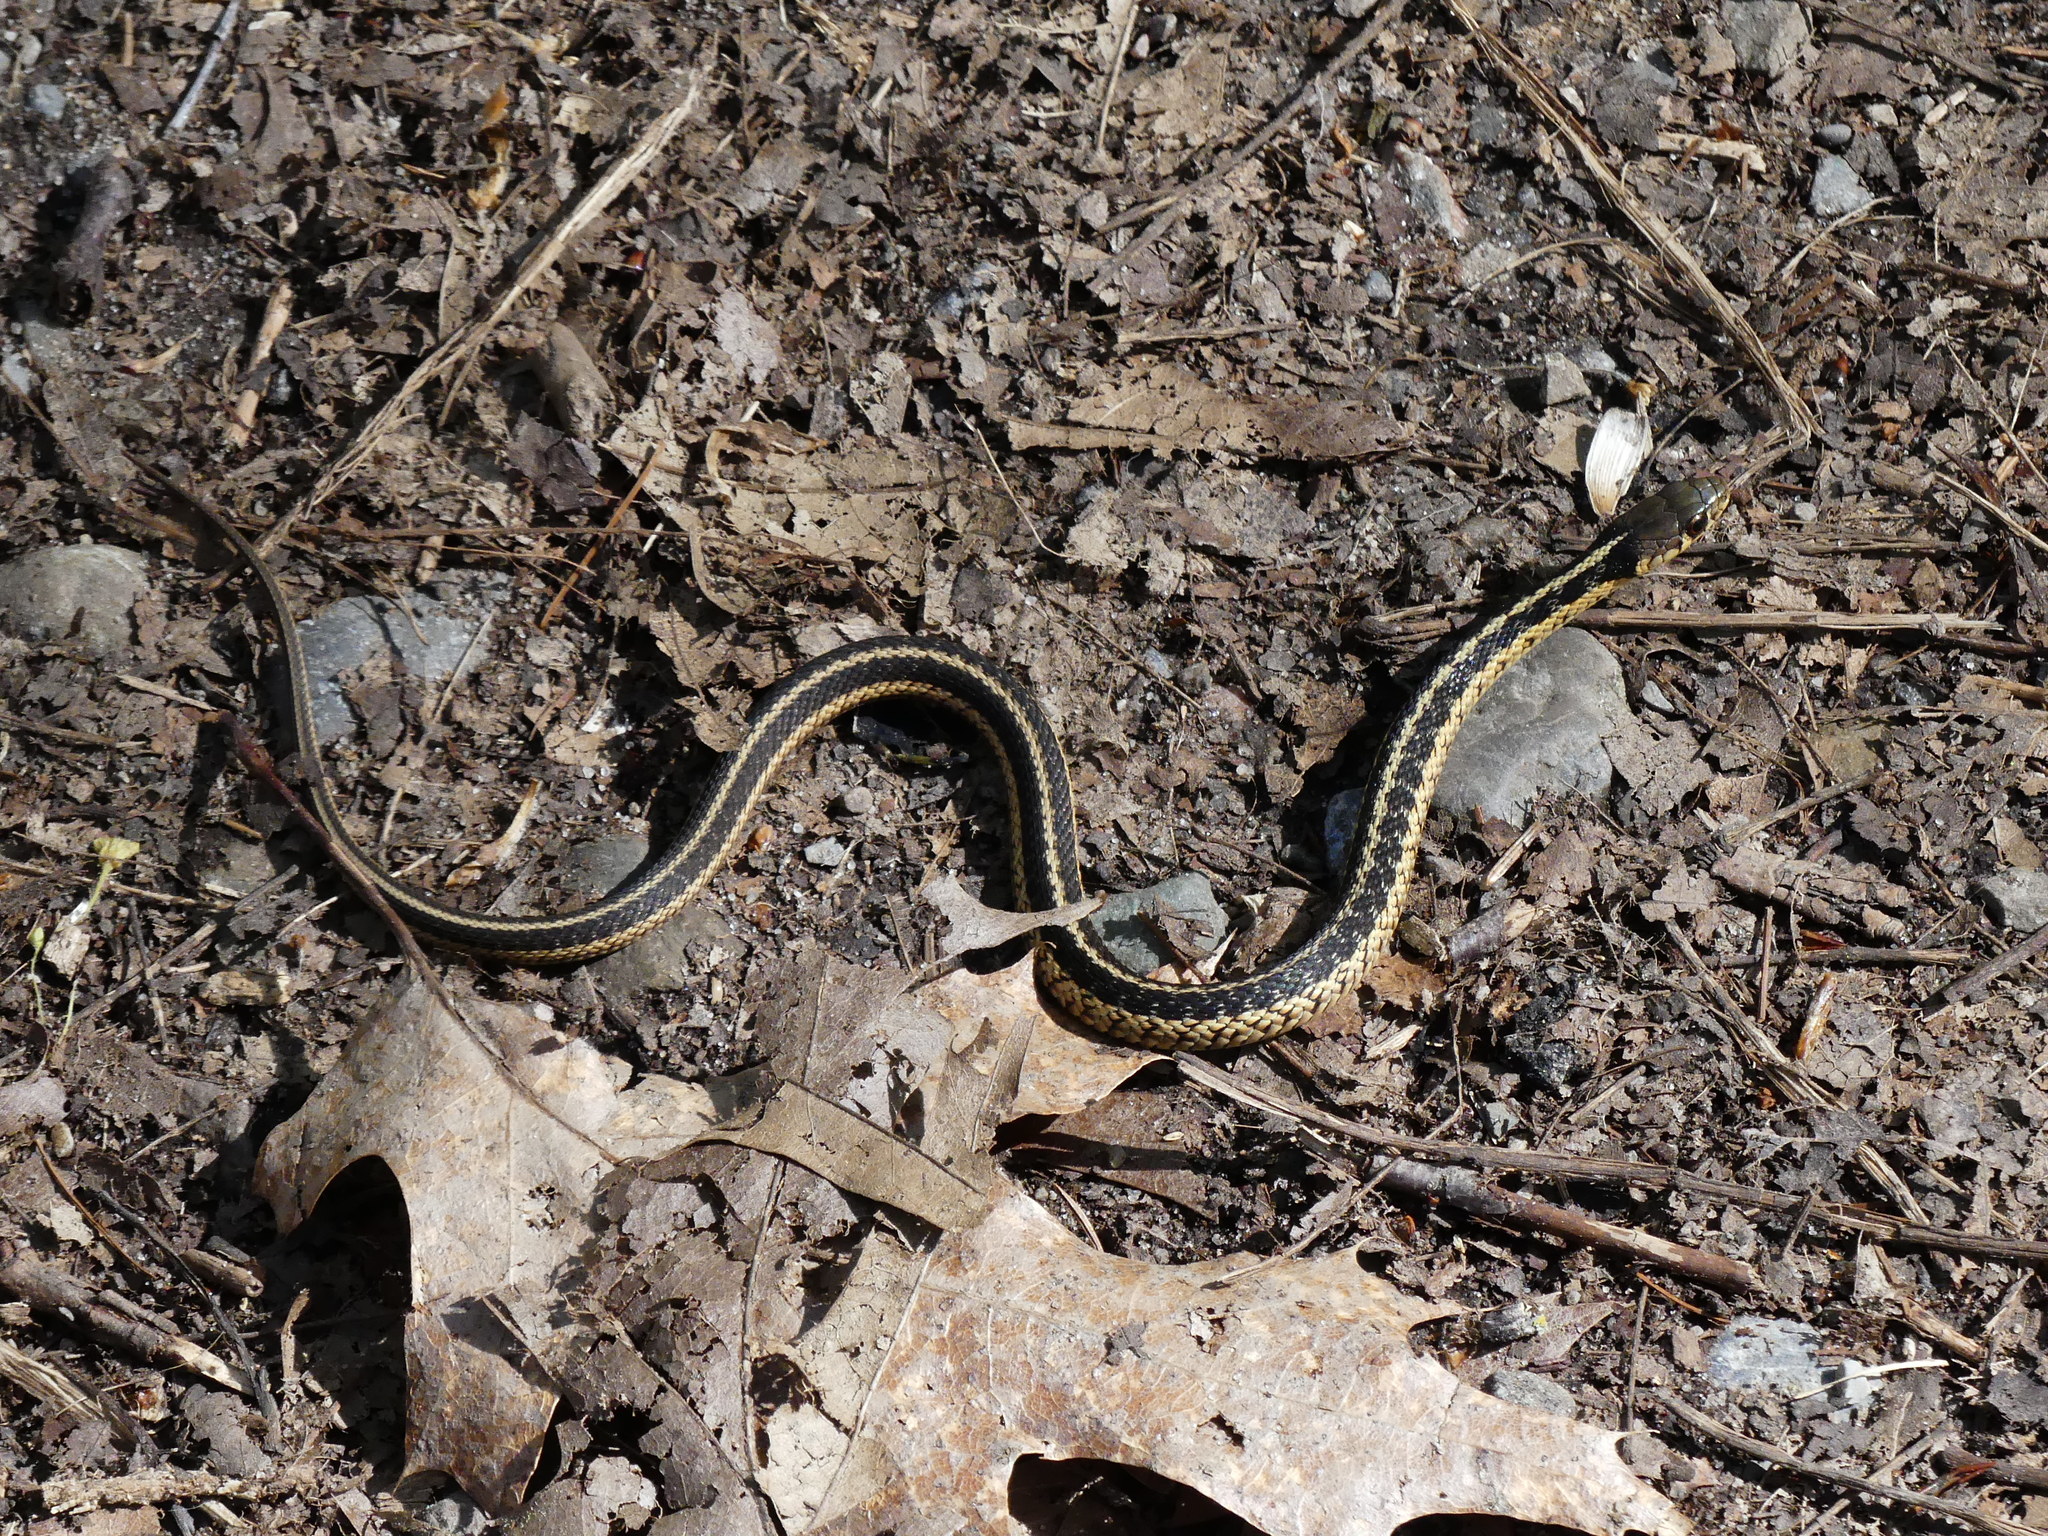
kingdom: Animalia
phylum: Chordata
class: Squamata
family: Colubridae
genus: Thamnophis
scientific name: Thamnophis sirtalis
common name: Common garter snake
